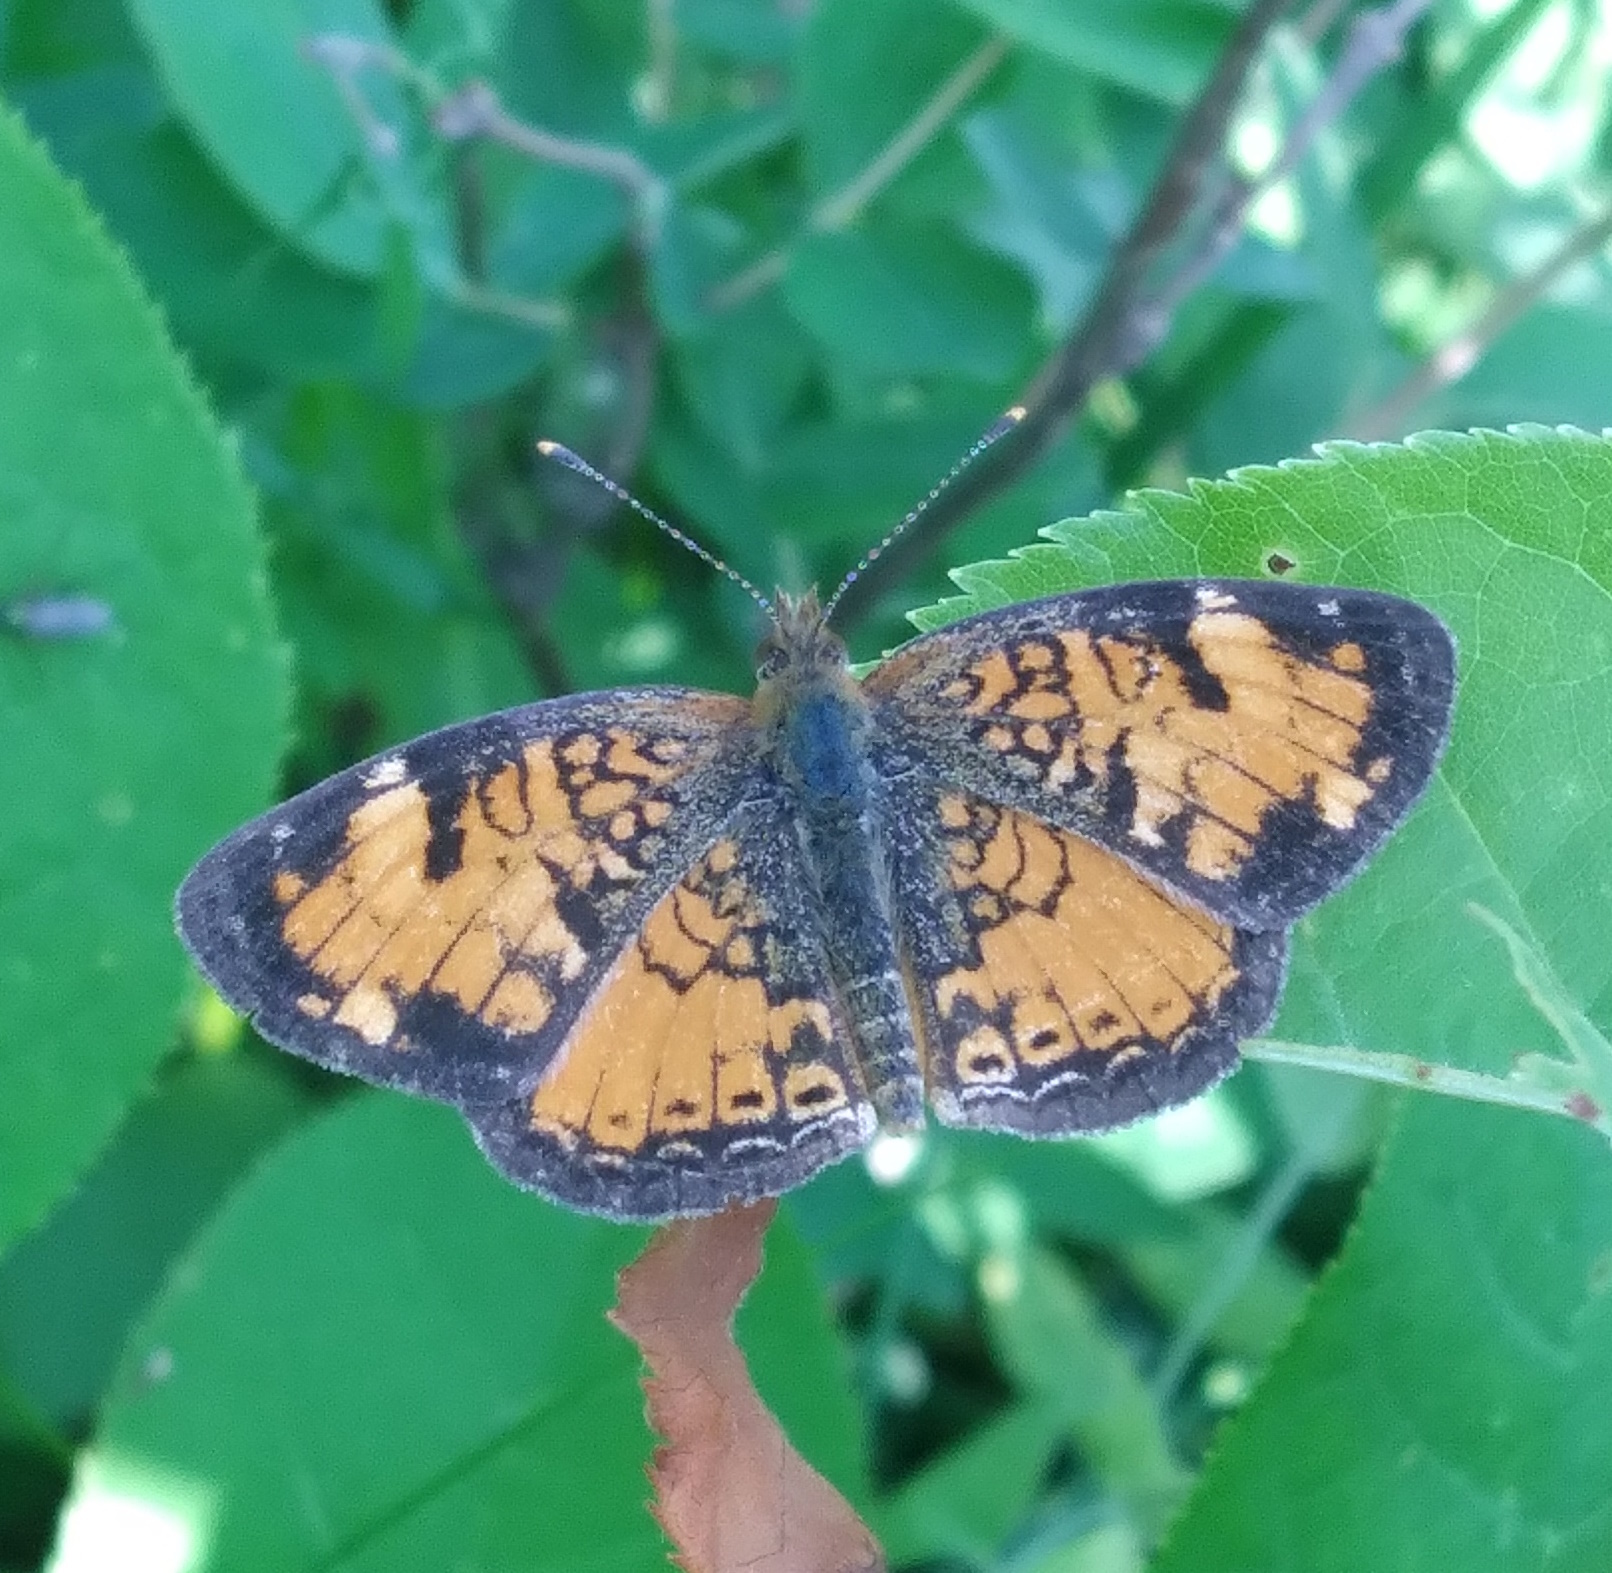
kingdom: Animalia
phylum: Arthropoda
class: Insecta
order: Lepidoptera
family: Nymphalidae
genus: Phyciodes
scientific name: Phyciodes tharos
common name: Pearl crescent
